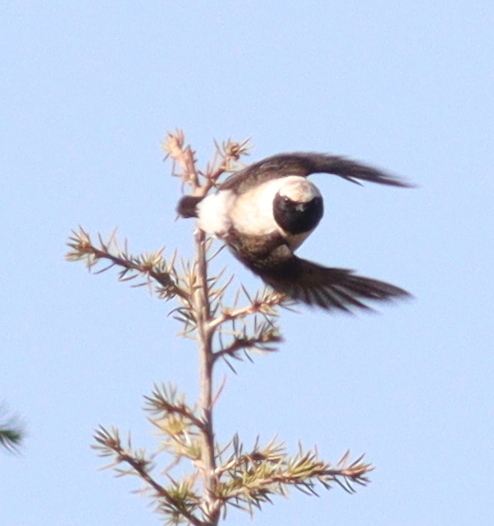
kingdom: Animalia
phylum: Chordata
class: Aves
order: Passeriformes
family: Muscicapidae
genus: Oenanthe
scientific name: Oenanthe hispanica
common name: Black-eared wheatear
